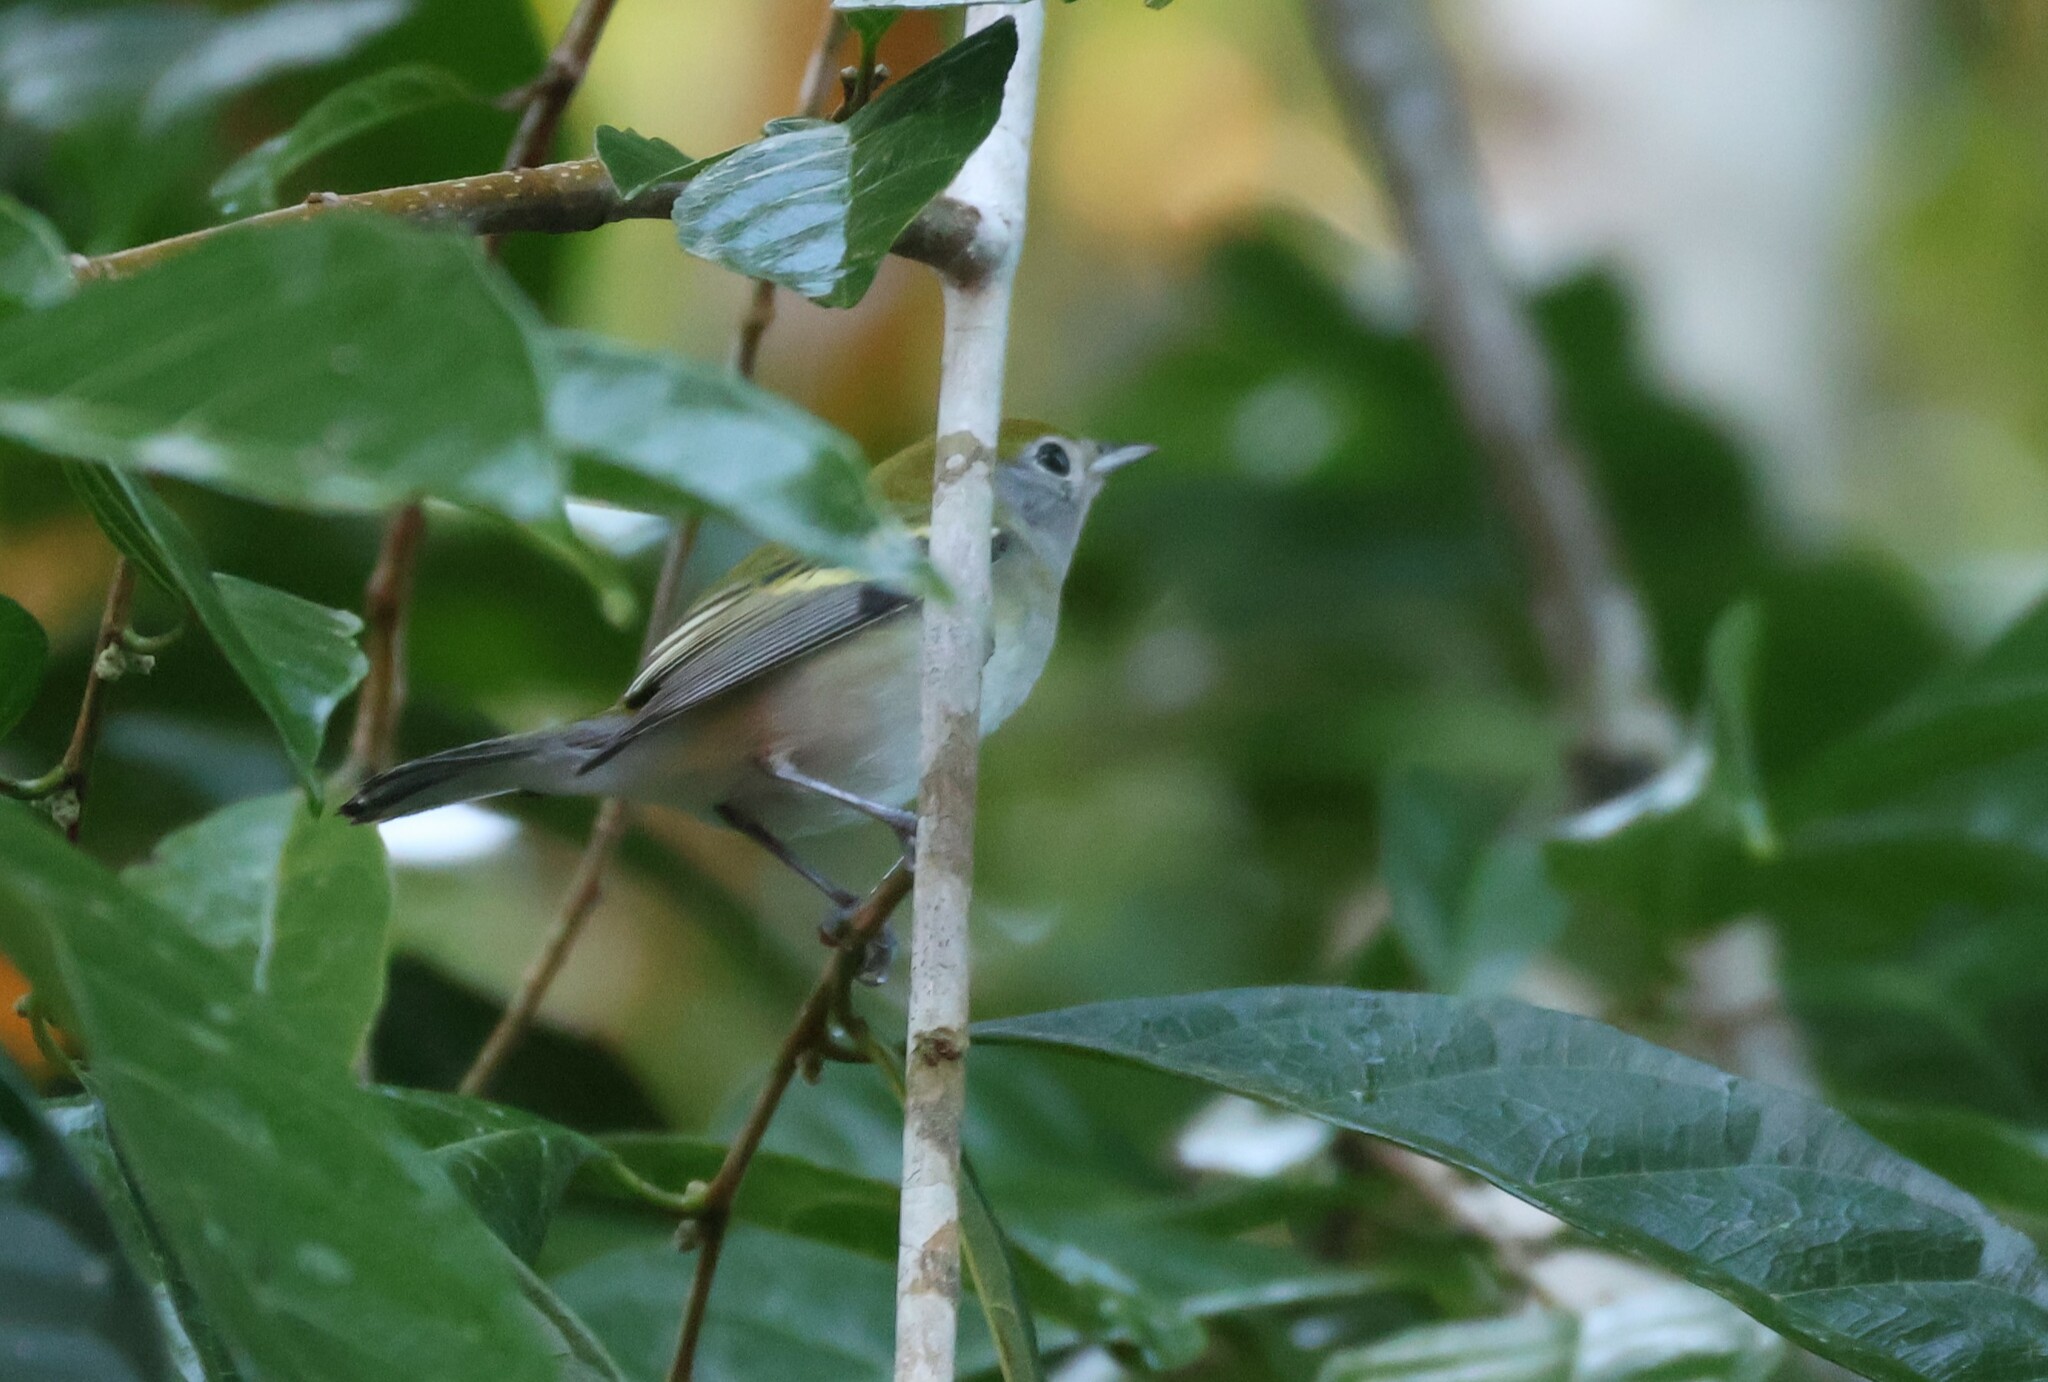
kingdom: Animalia
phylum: Chordata
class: Aves
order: Passeriformes
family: Parulidae
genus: Setophaga
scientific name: Setophaga pensylvanica
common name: Chestnut-sided warbler
